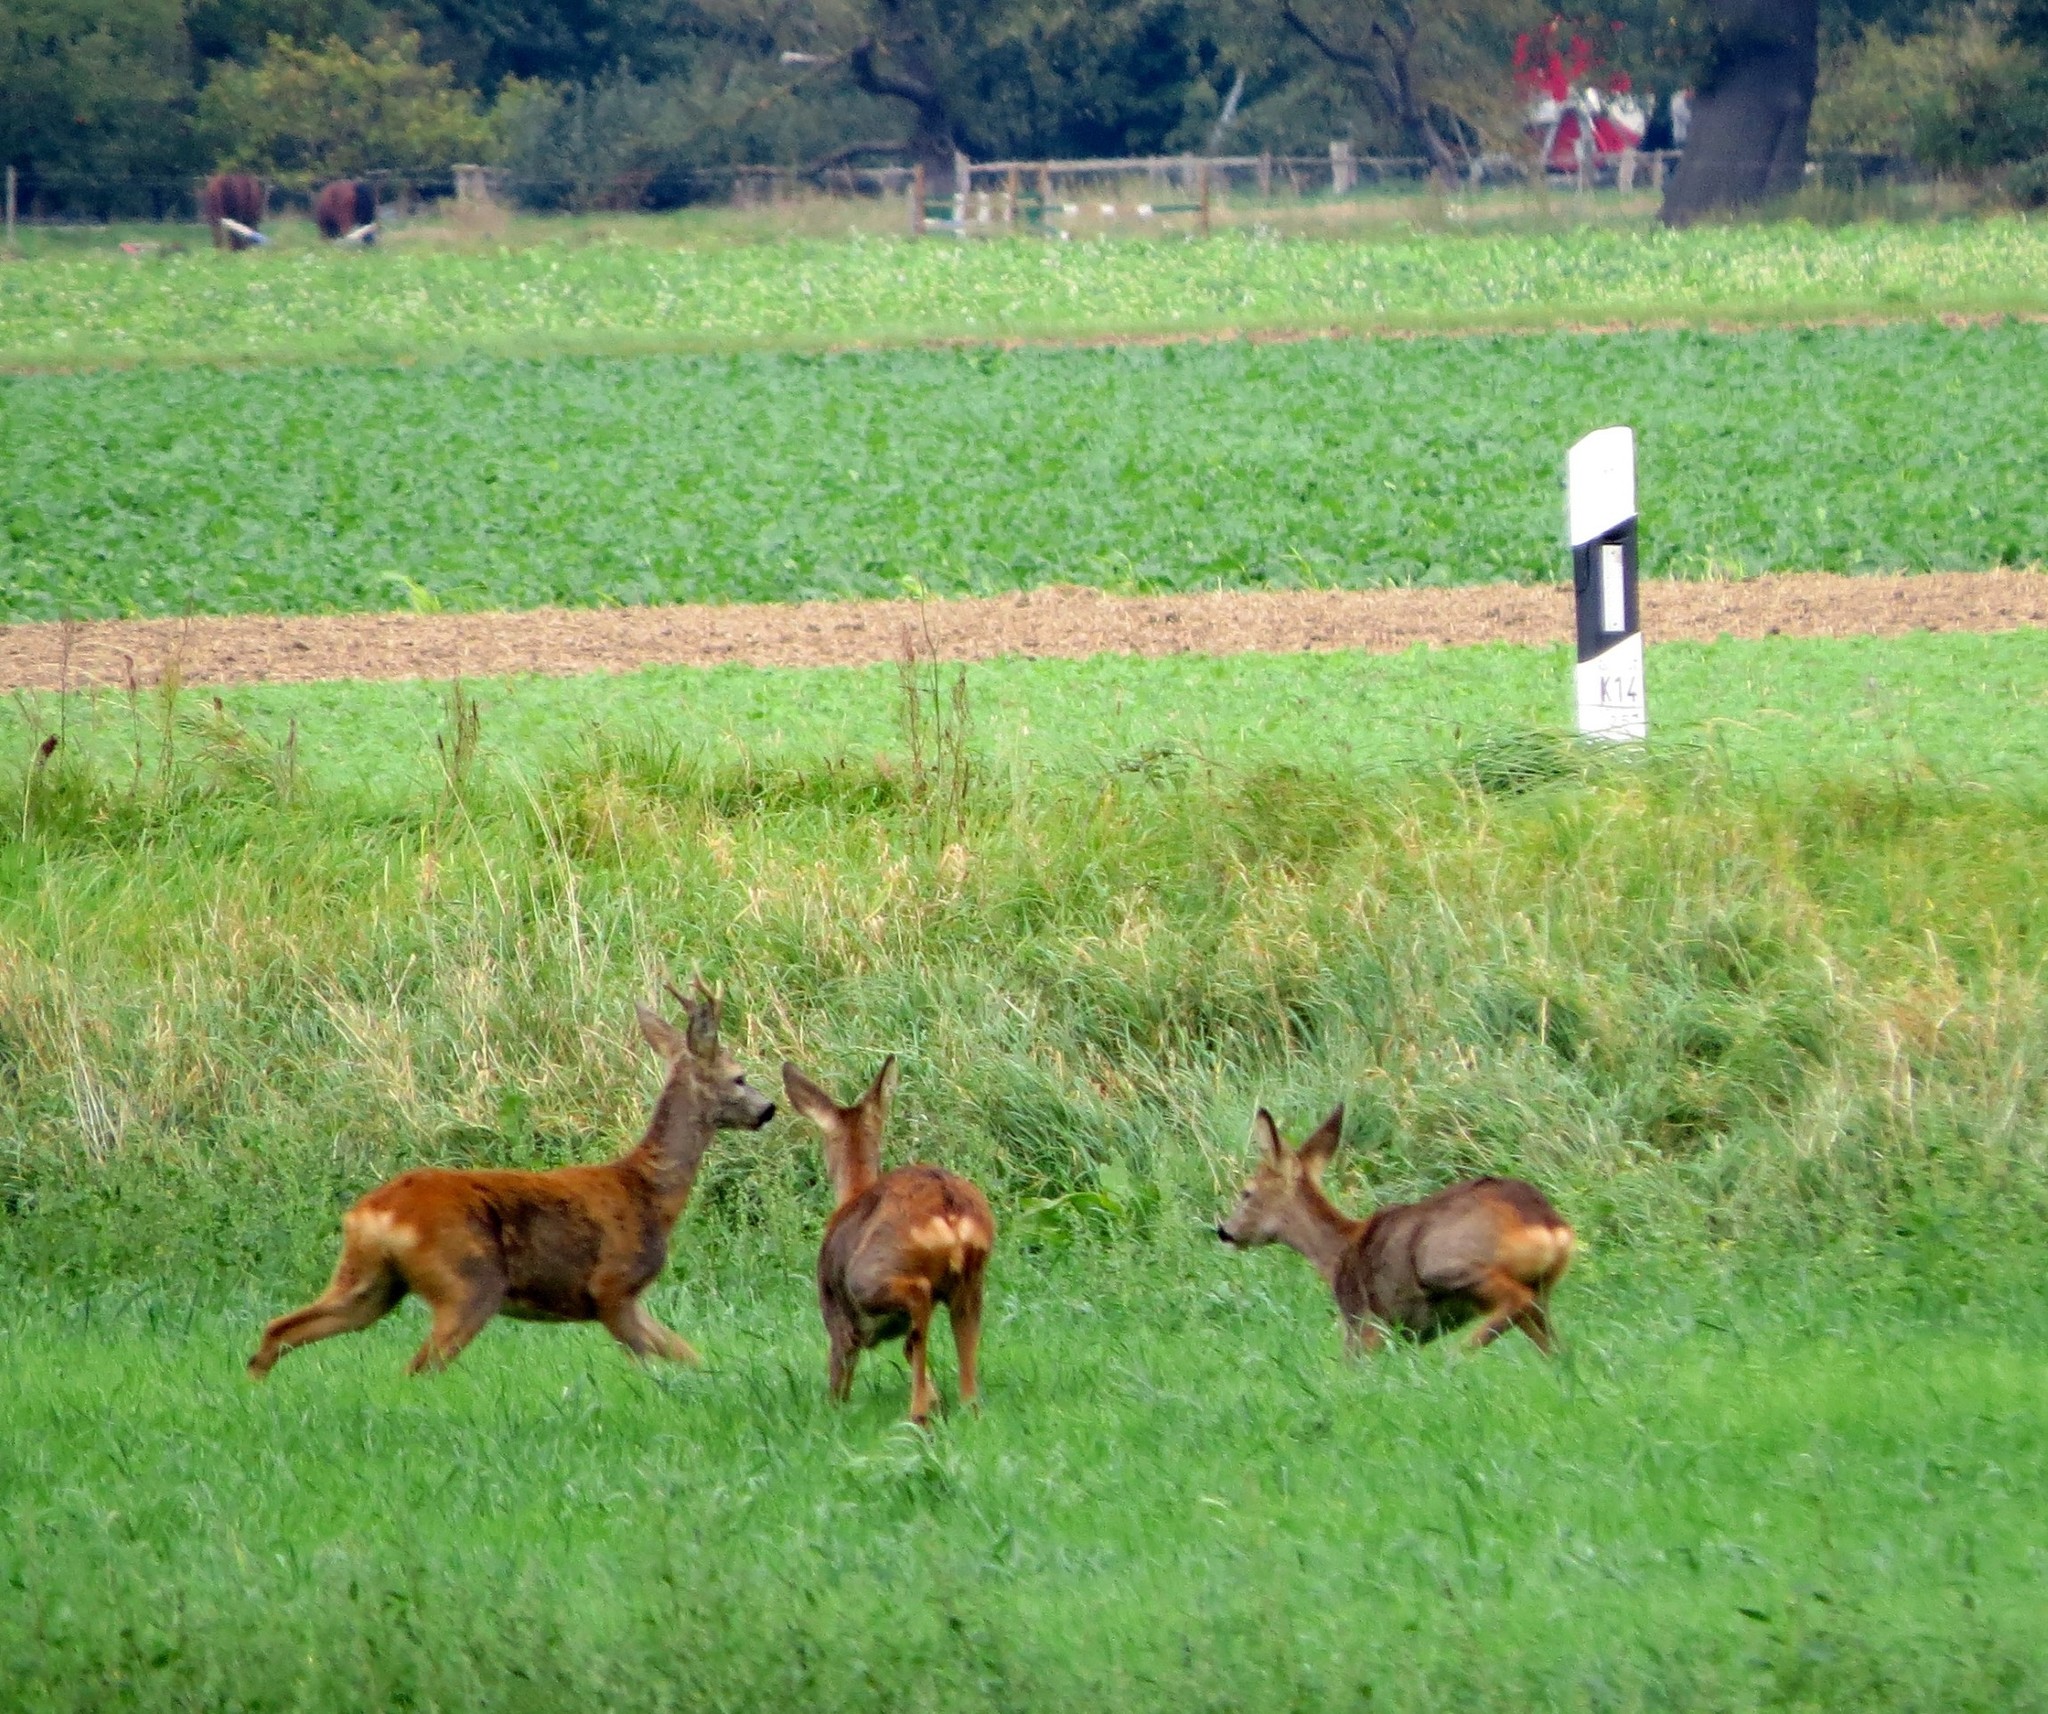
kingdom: Animalia
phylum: Chordata
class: Mammalia
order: Artiodactyla
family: Cervidae
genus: Capreolus
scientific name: Capreolus capreolus
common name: Western roe deer
